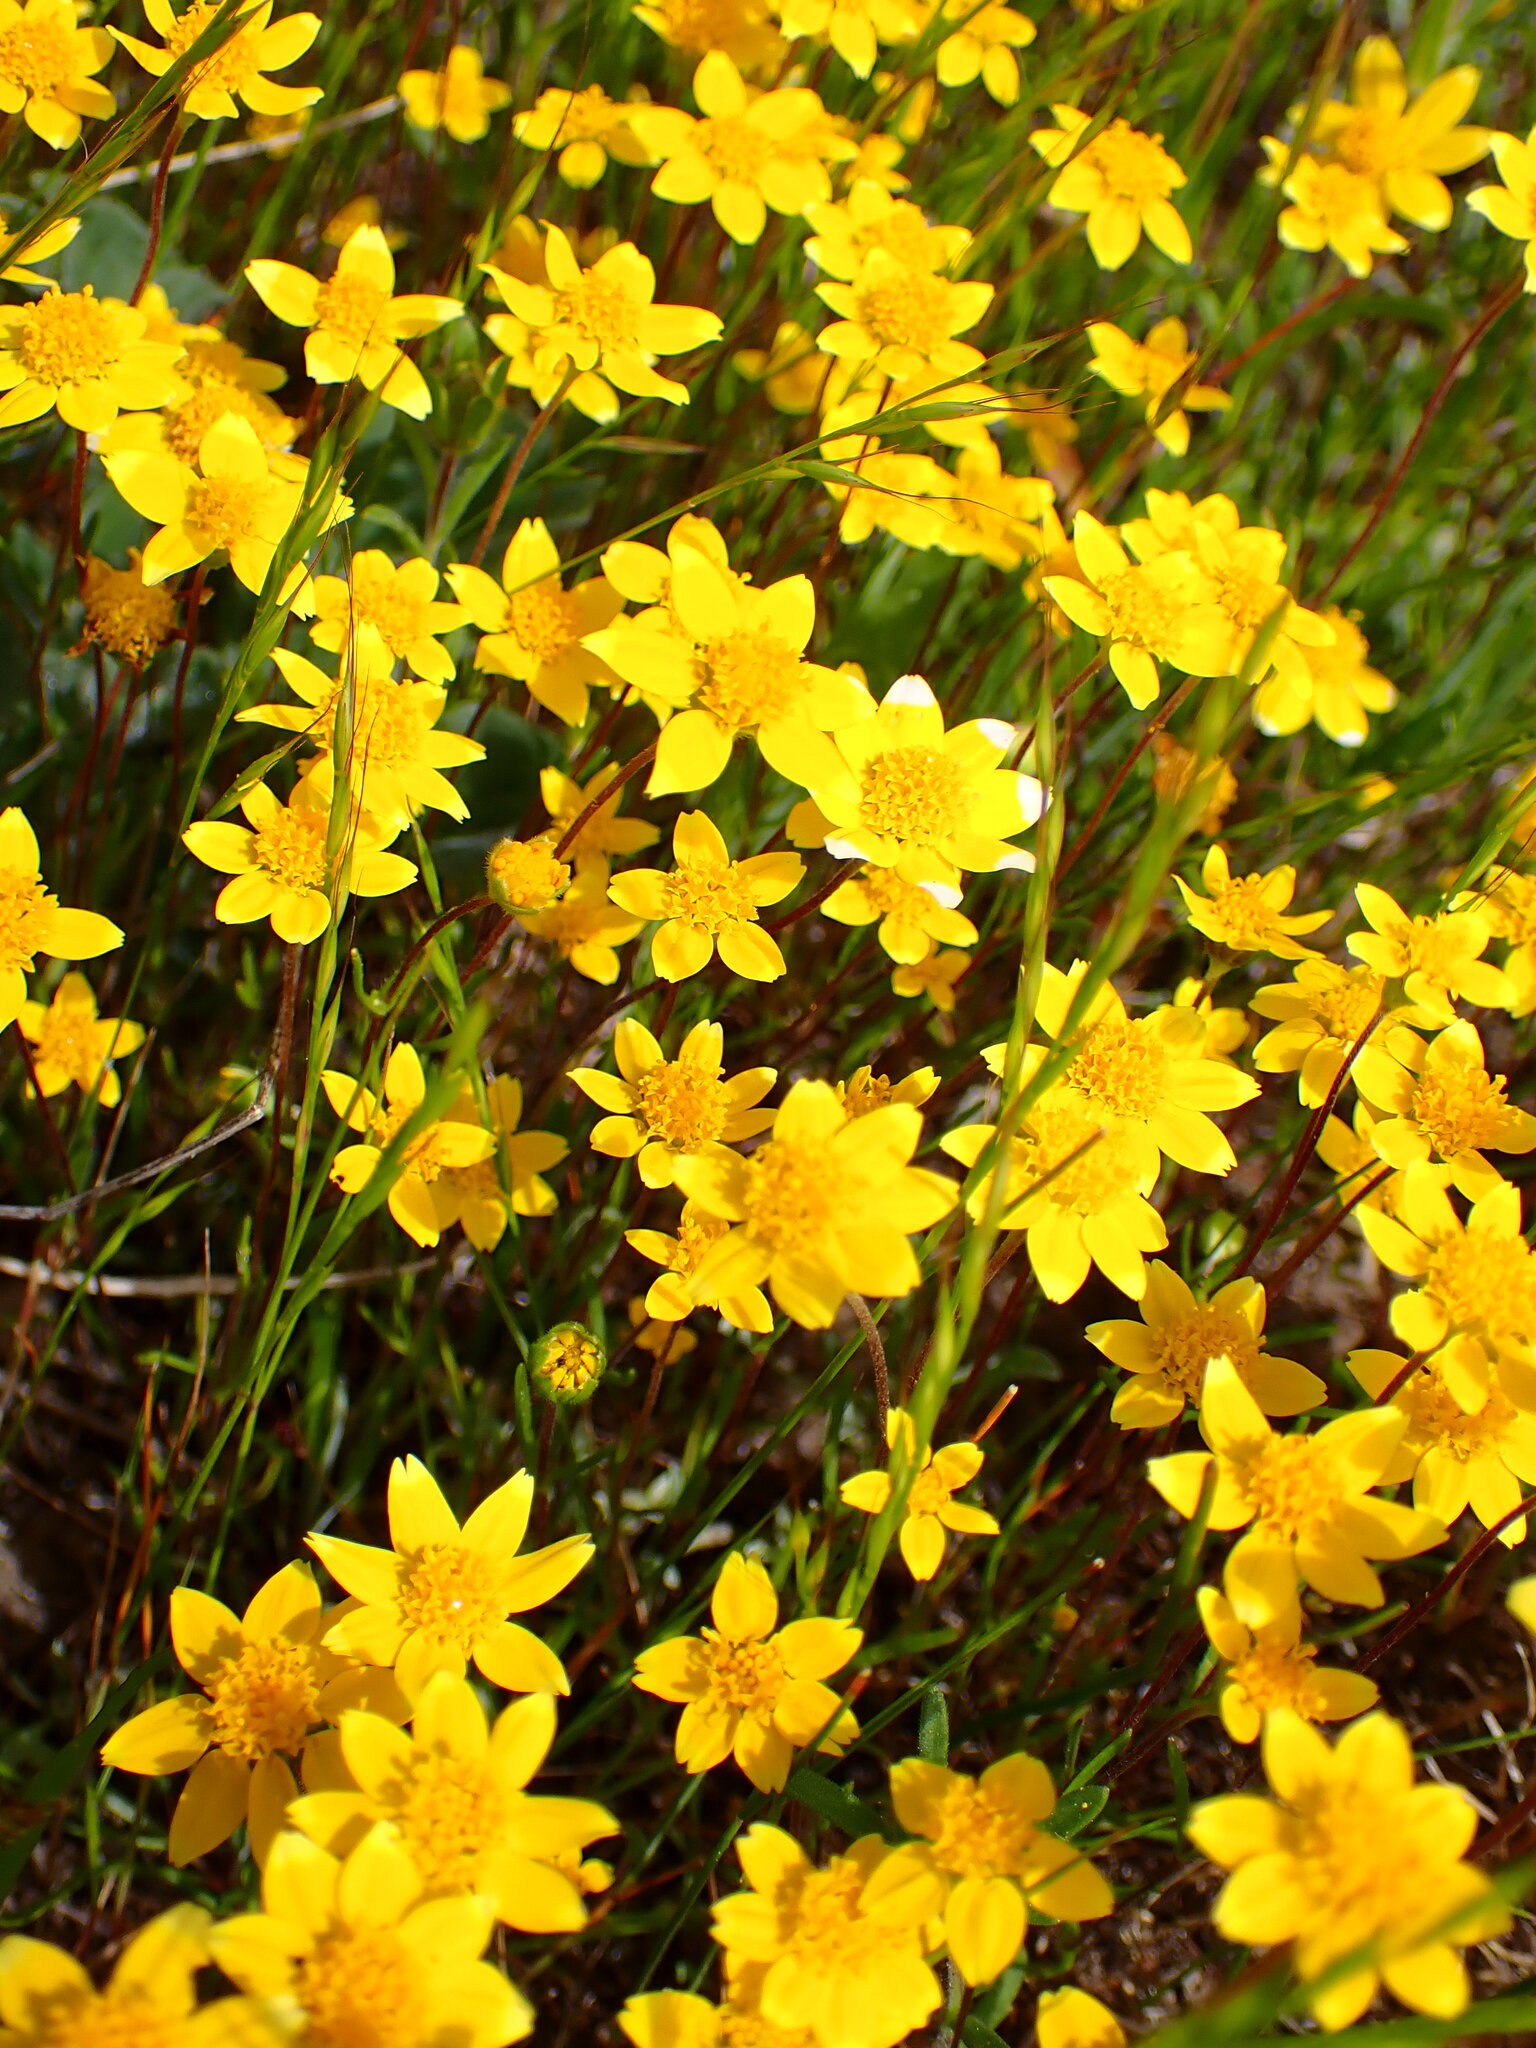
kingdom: Plantae
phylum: Tracheophyta
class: Magnoliopsida
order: Asterales
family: Asteraceae
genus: Lasthenia
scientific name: Lasthenia californica
